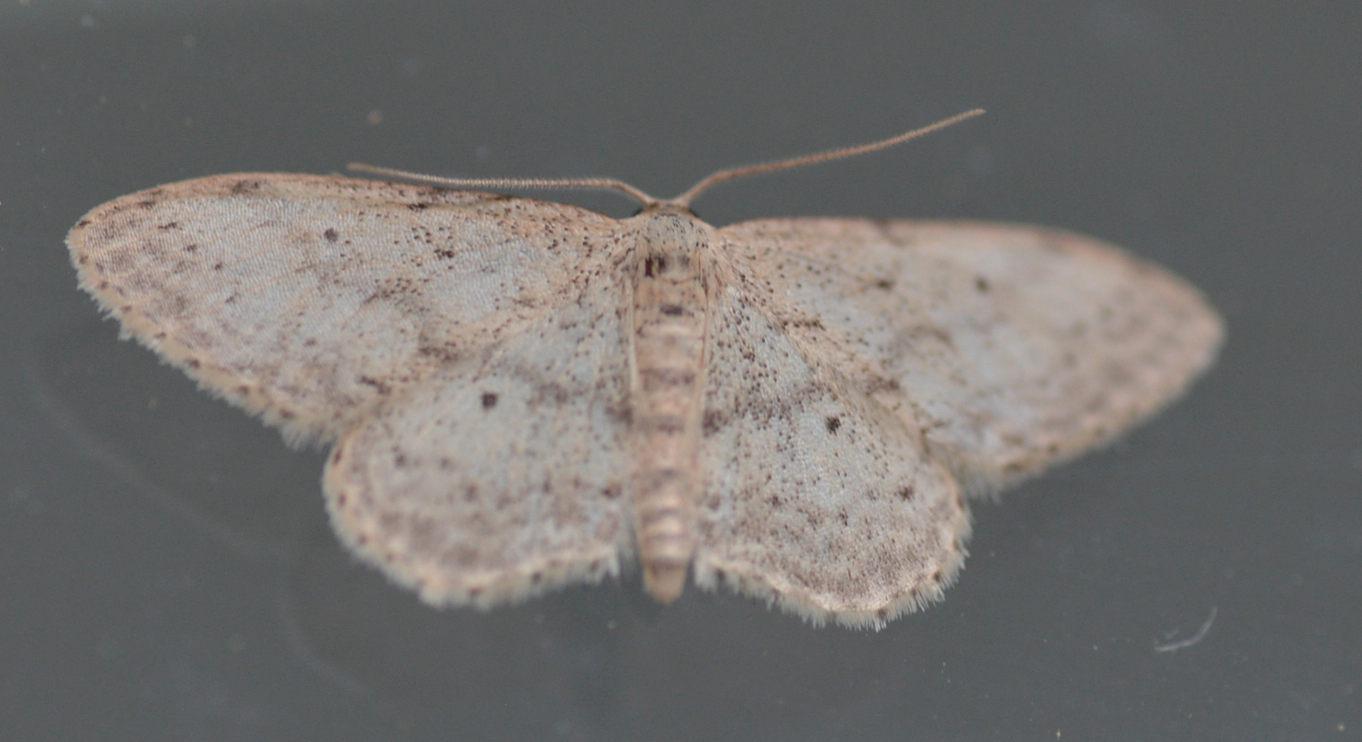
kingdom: Animalia
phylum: Arthropoda
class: Insecta
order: Lepidoptera
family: Geometridae
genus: Idaea
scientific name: Idaea seriata
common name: Small dusty wave
